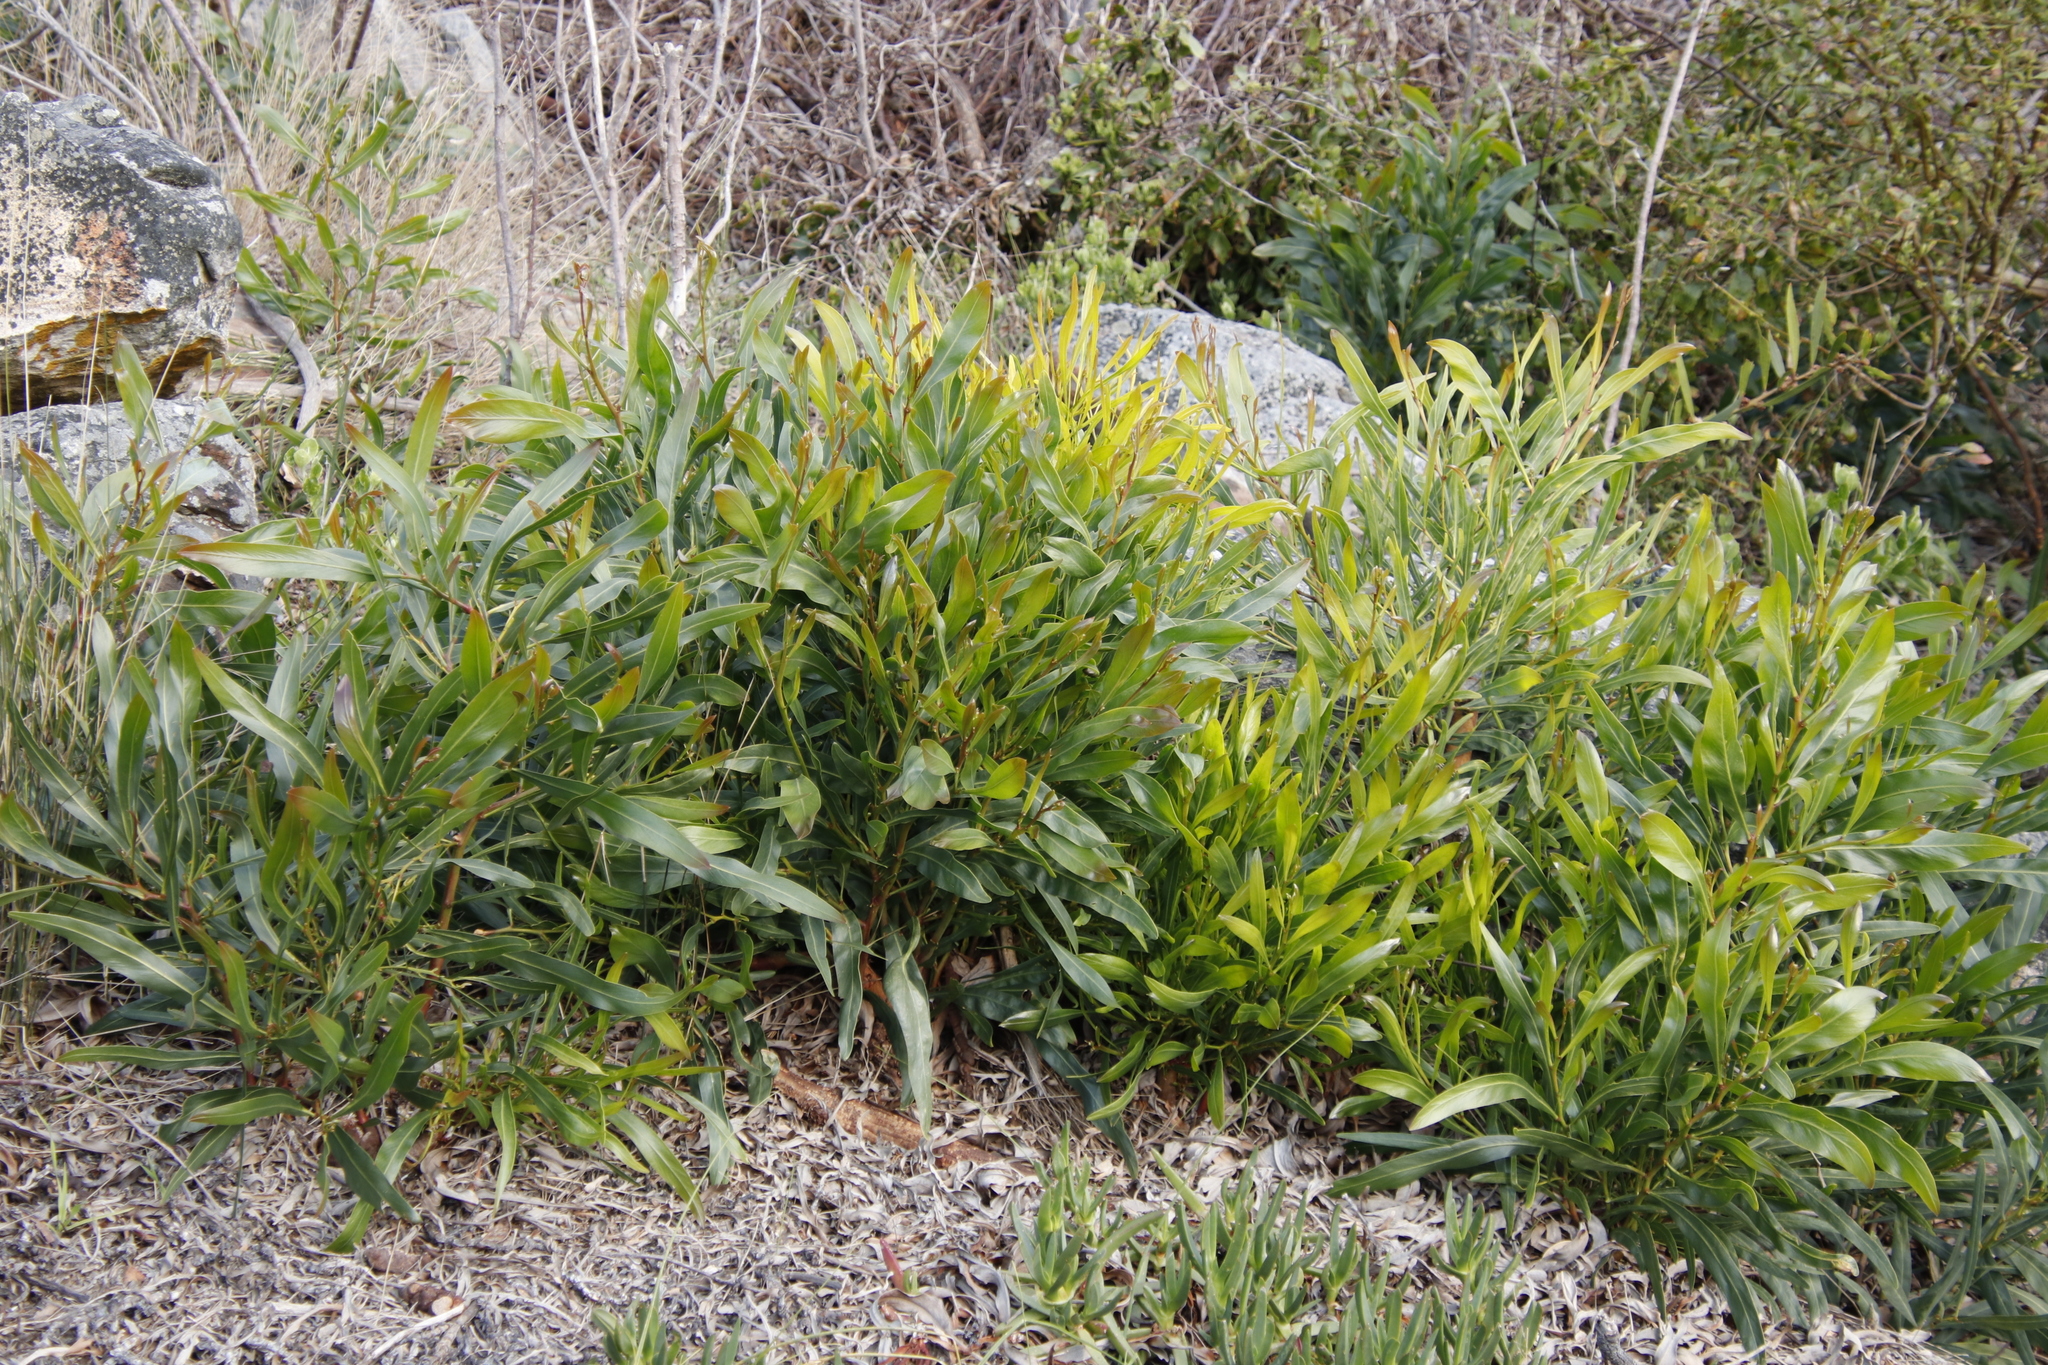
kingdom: Plantae
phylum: Tracheophyta
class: Magnoliopsida
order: Fabales
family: Fabaceae
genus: Acacia
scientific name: Acacia saligna
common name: Orange wattle
